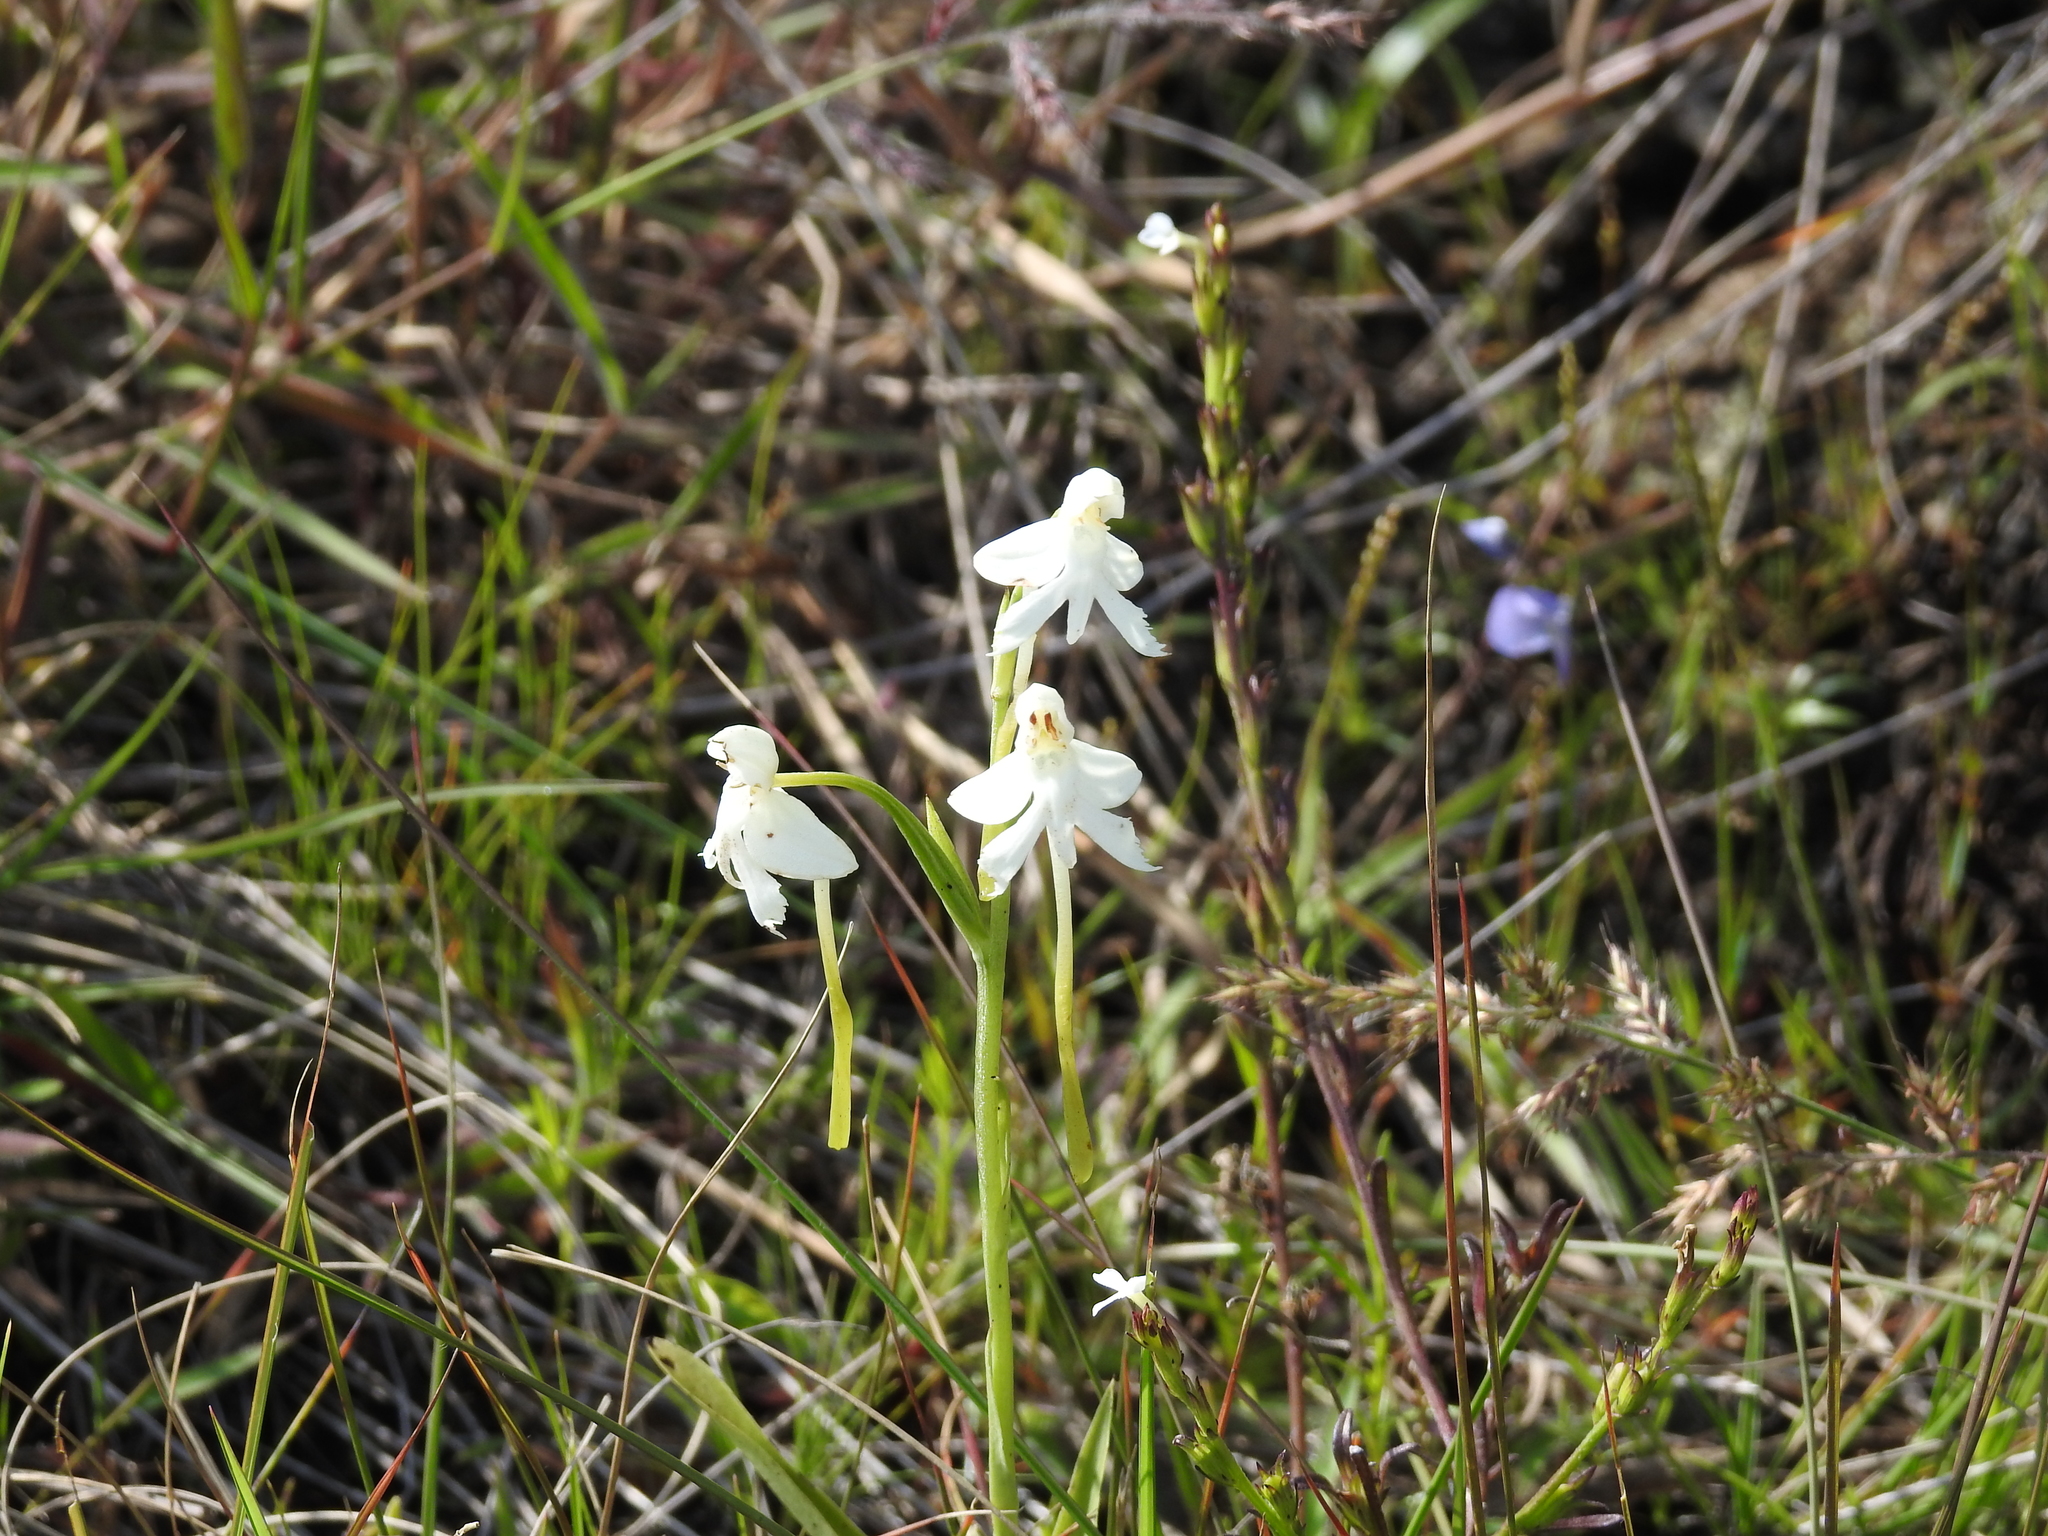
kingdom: Plantae
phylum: Tracheophyta
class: Liliopsida
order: Asparagales
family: Orchidaceae
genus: Habenaria
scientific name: Habenaria longicornu
